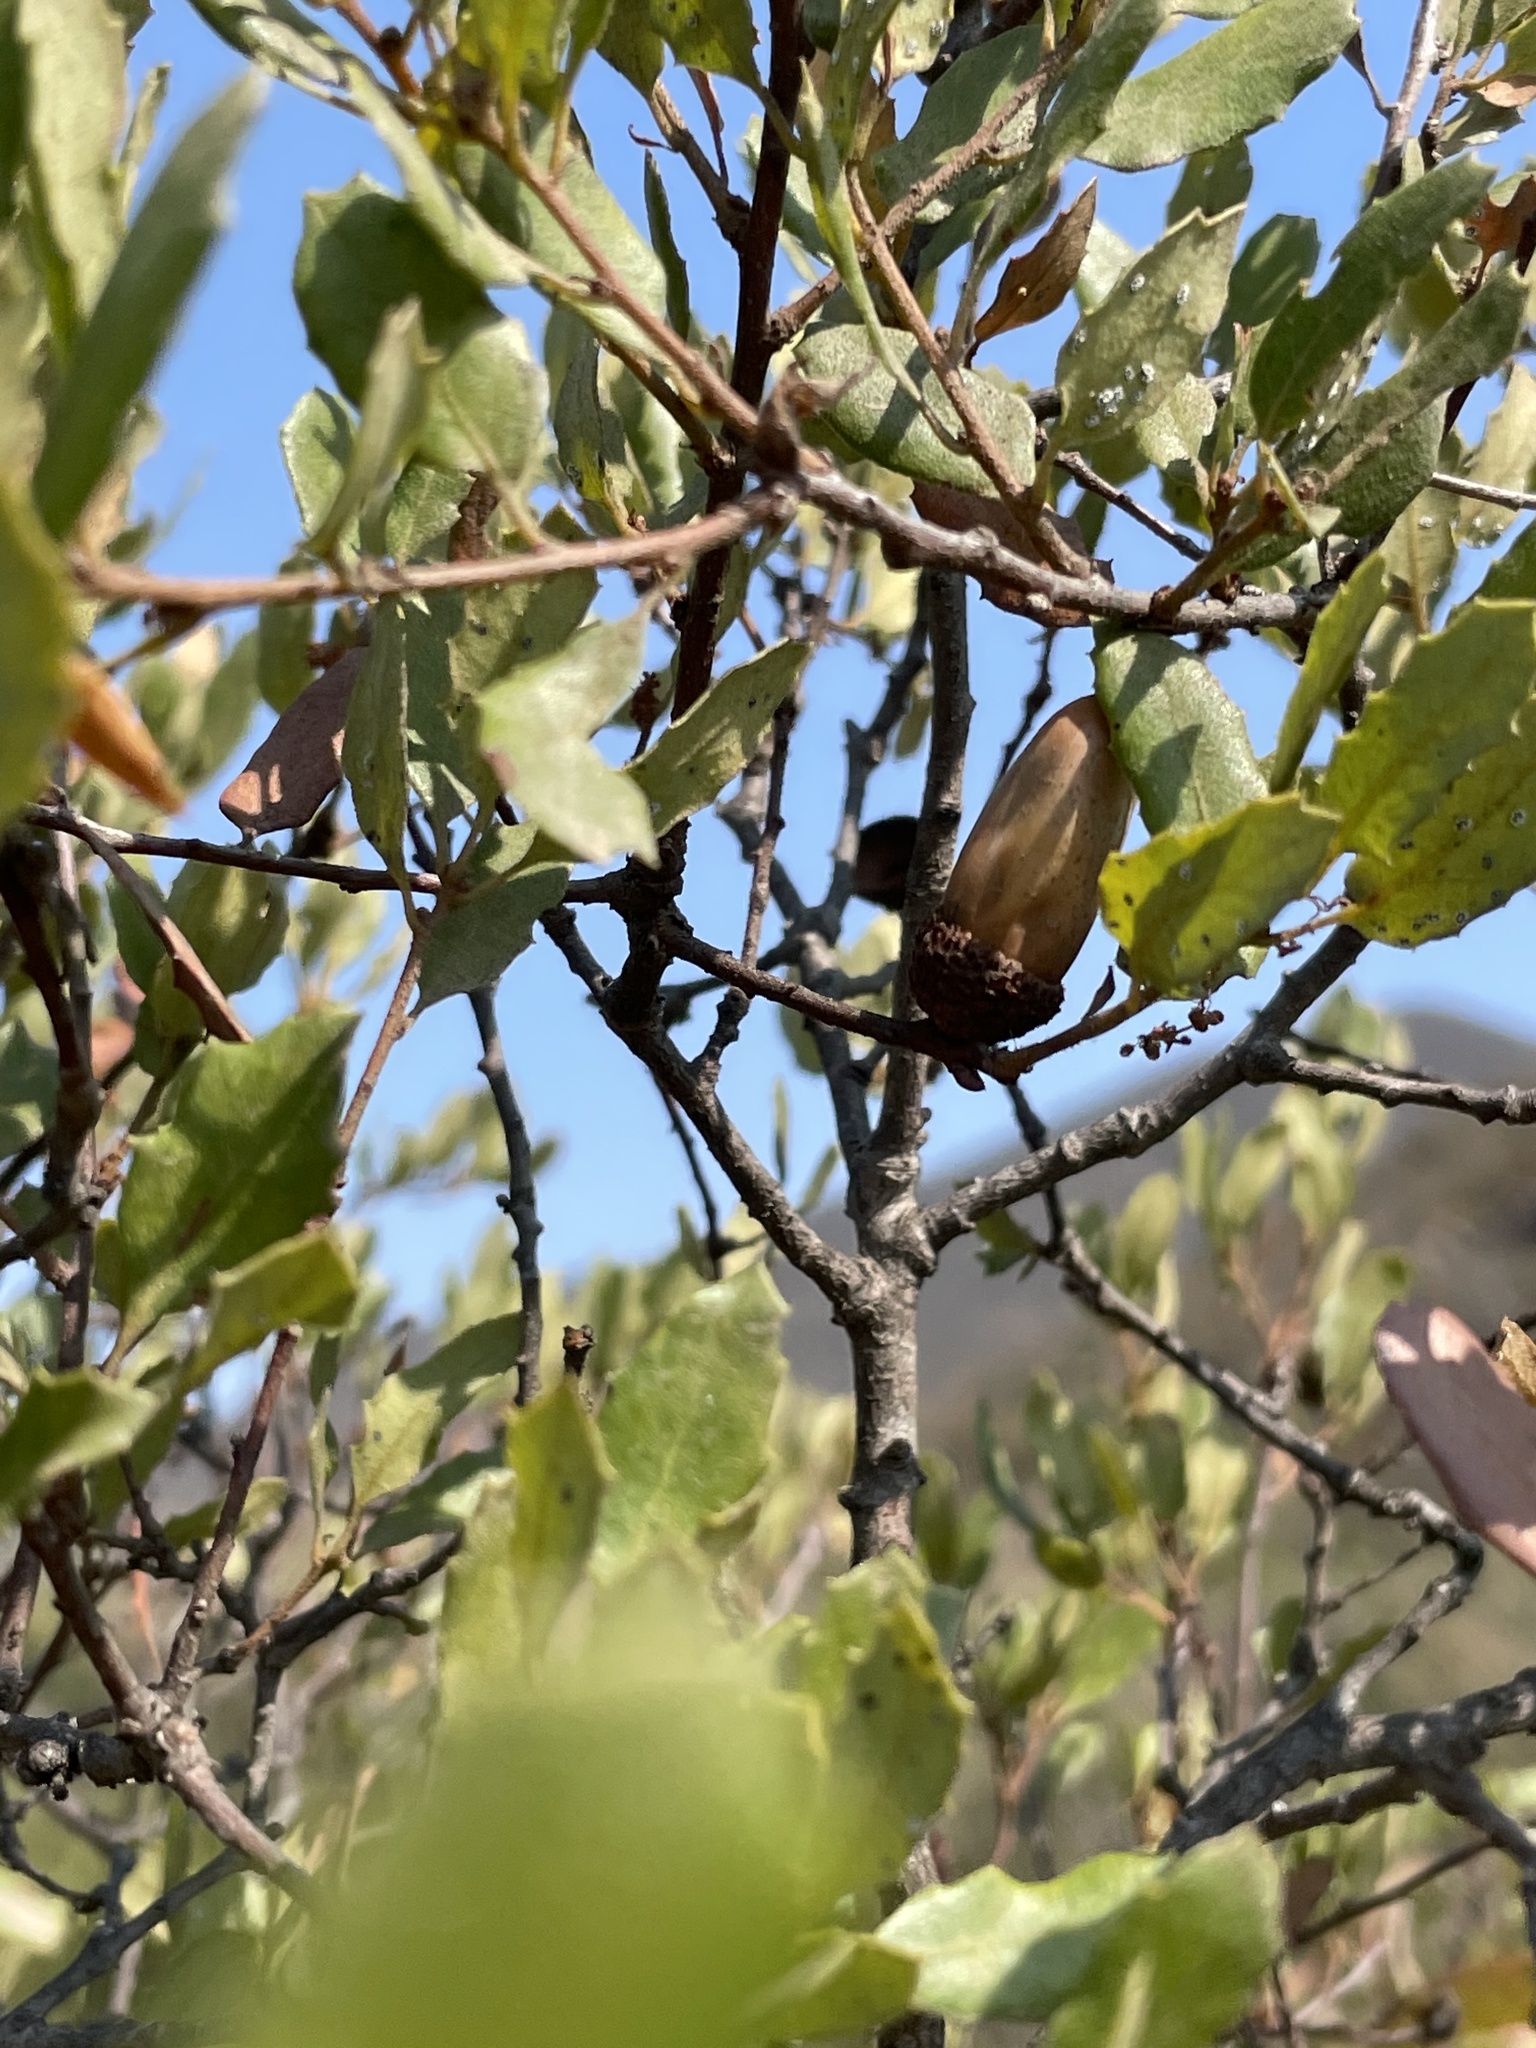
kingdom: Plantae
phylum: Tracheophyta
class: Magnoliopsida
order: Fagales
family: Fagaceae
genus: Quercus
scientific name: Quercus berberidifolia
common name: California scrub oak
